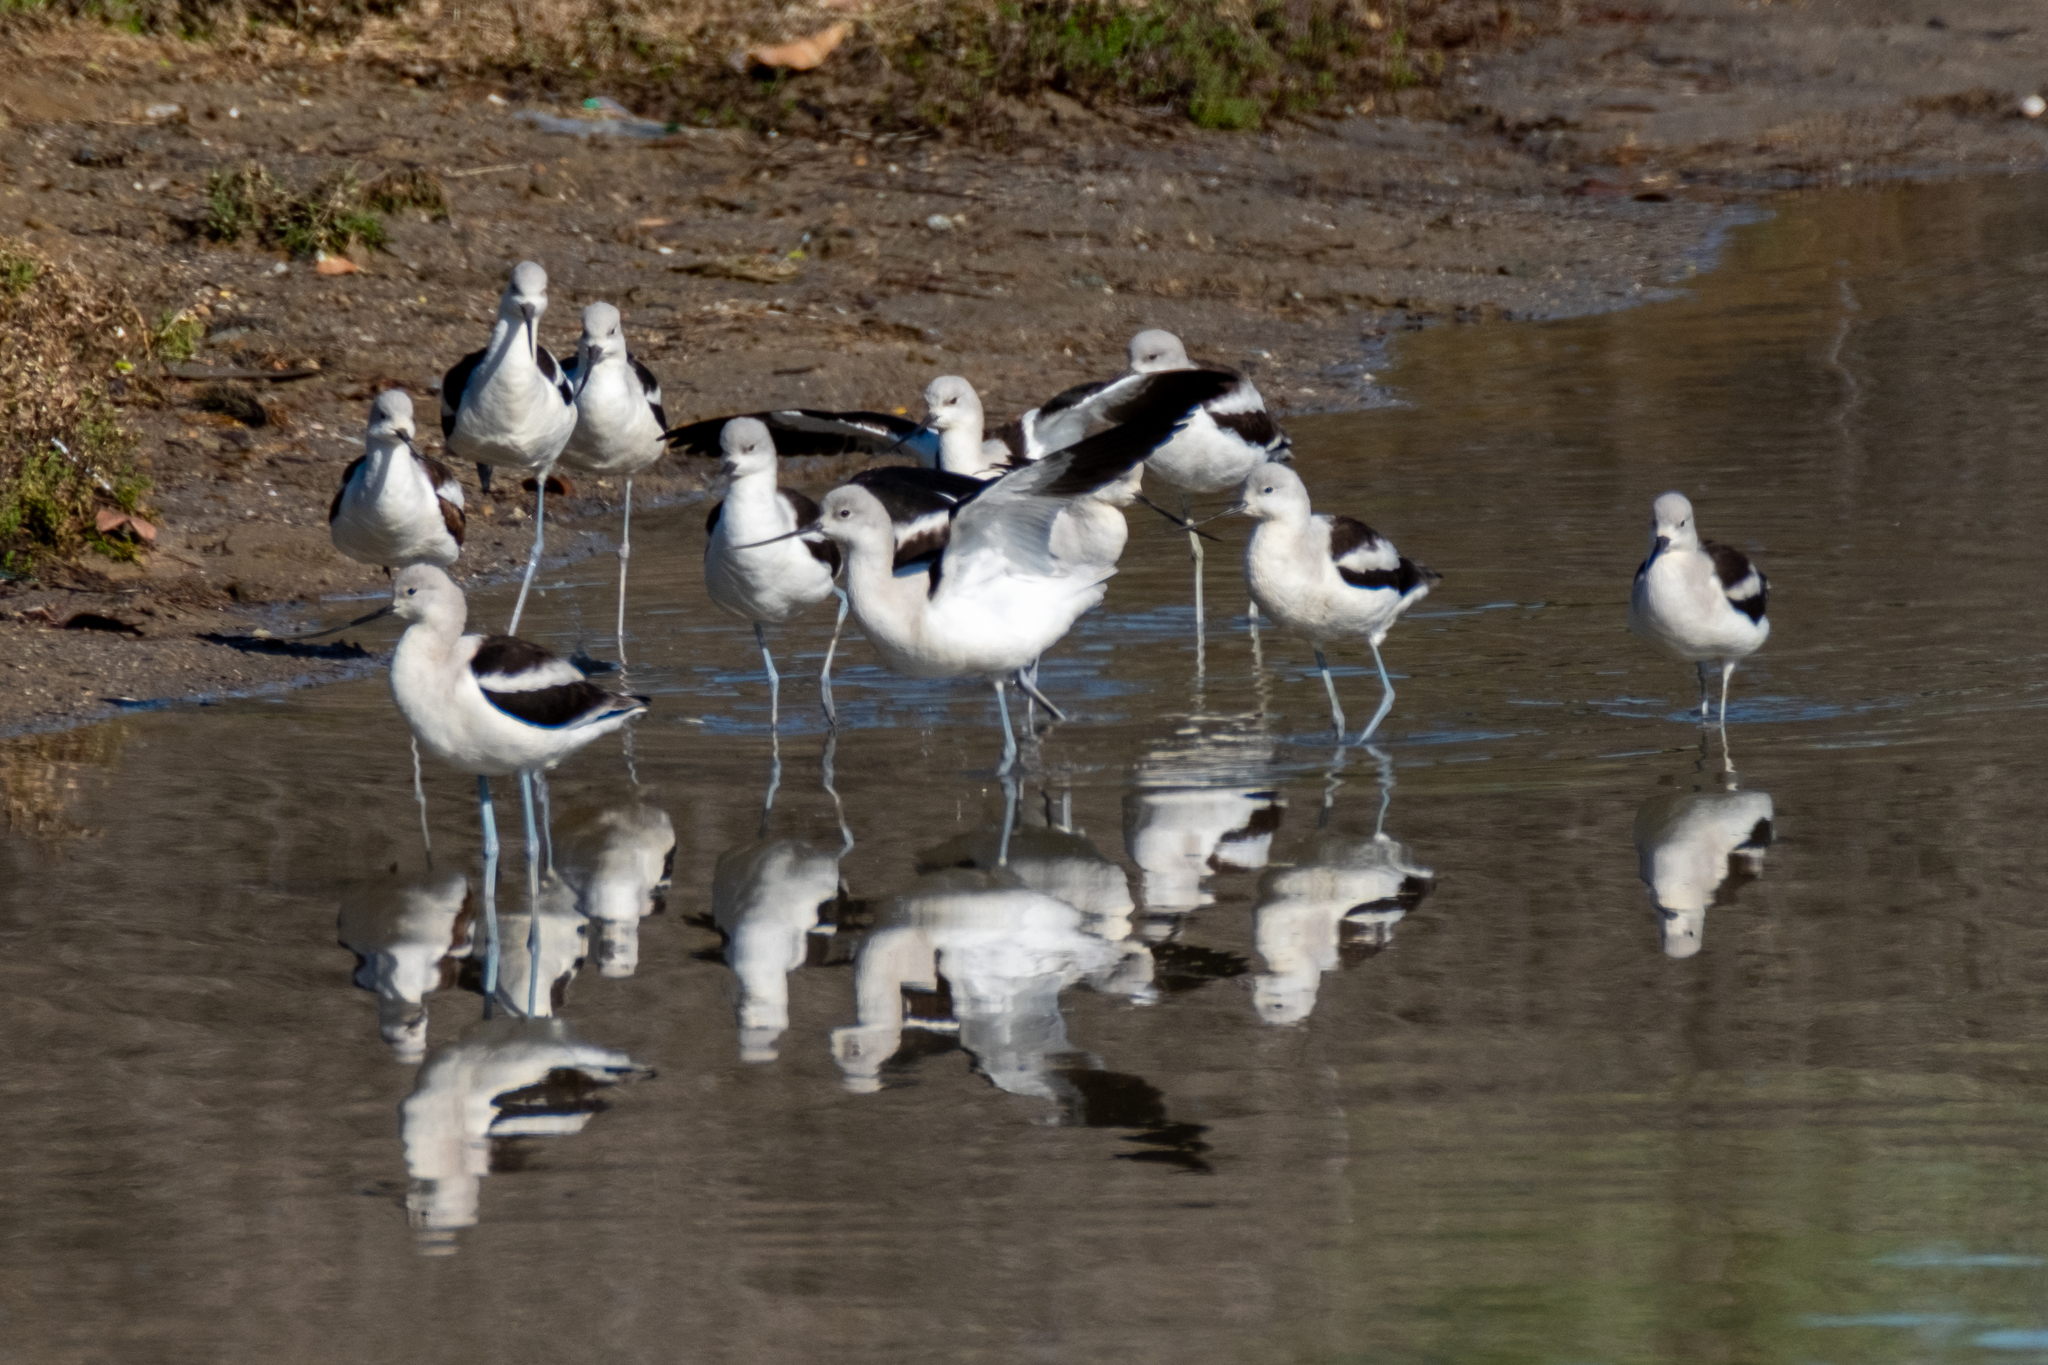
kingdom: Animalia
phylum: Chordata
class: Aves
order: Charadriiformes
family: Recurvirostridae
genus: Recurvirostra
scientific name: Recurvirostra americana
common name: American avocet
